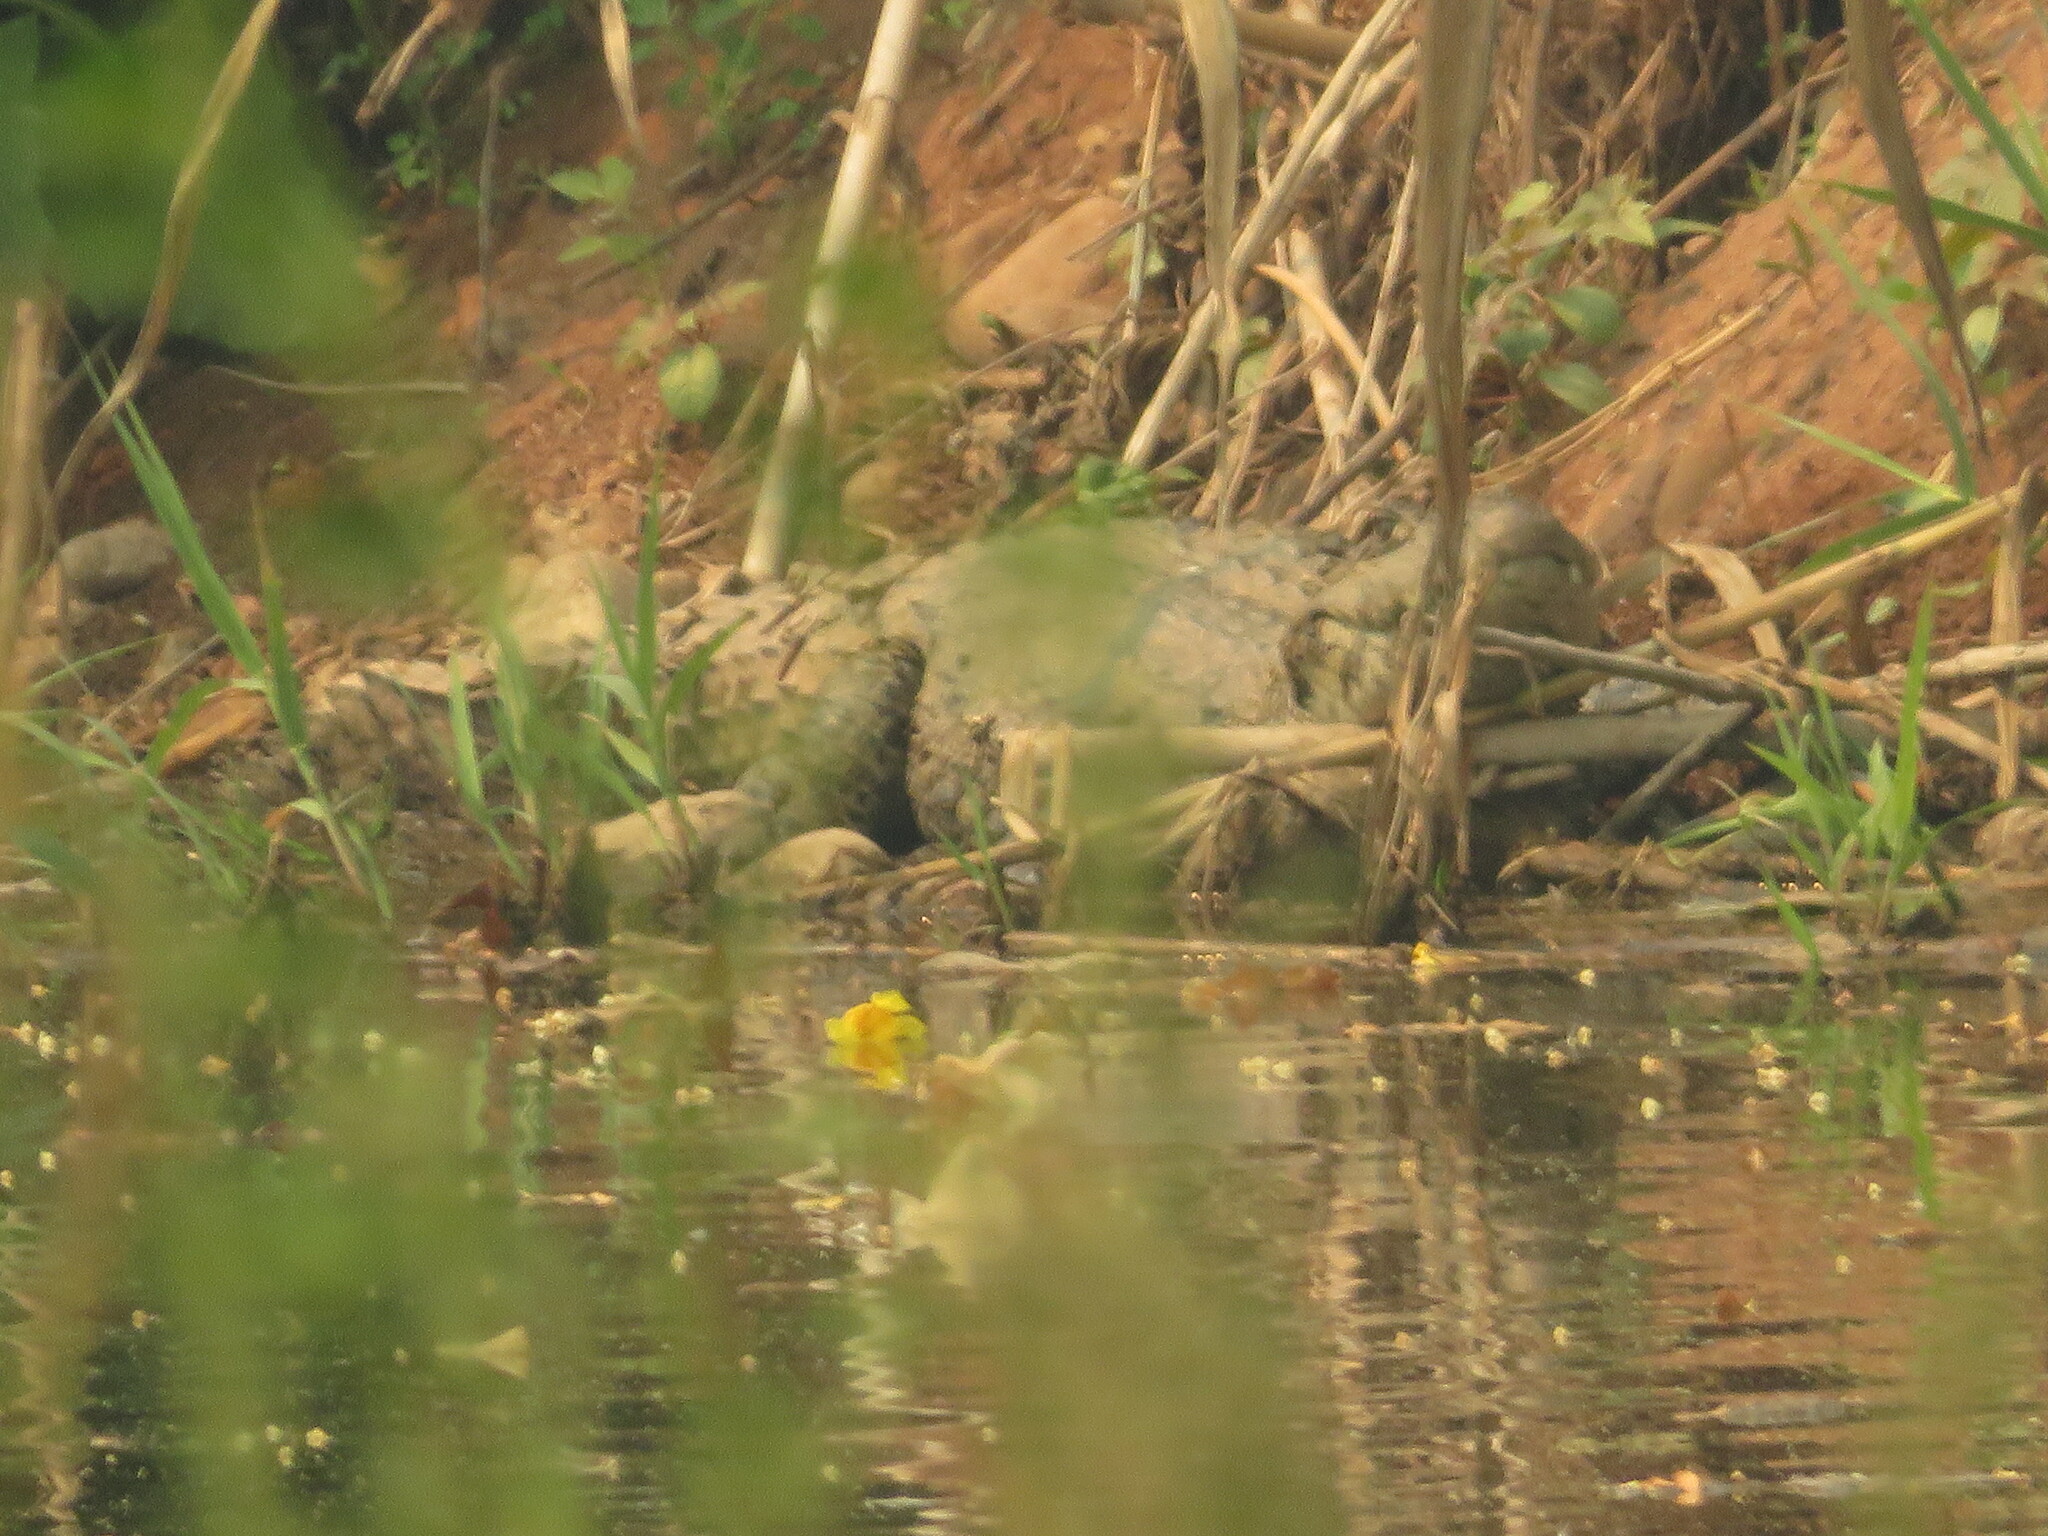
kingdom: Animalia
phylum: Chordata
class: Crocodylia
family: Alligatoridae
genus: Caiman
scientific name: Caiman latirostris
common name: Broad-snouted caiman
